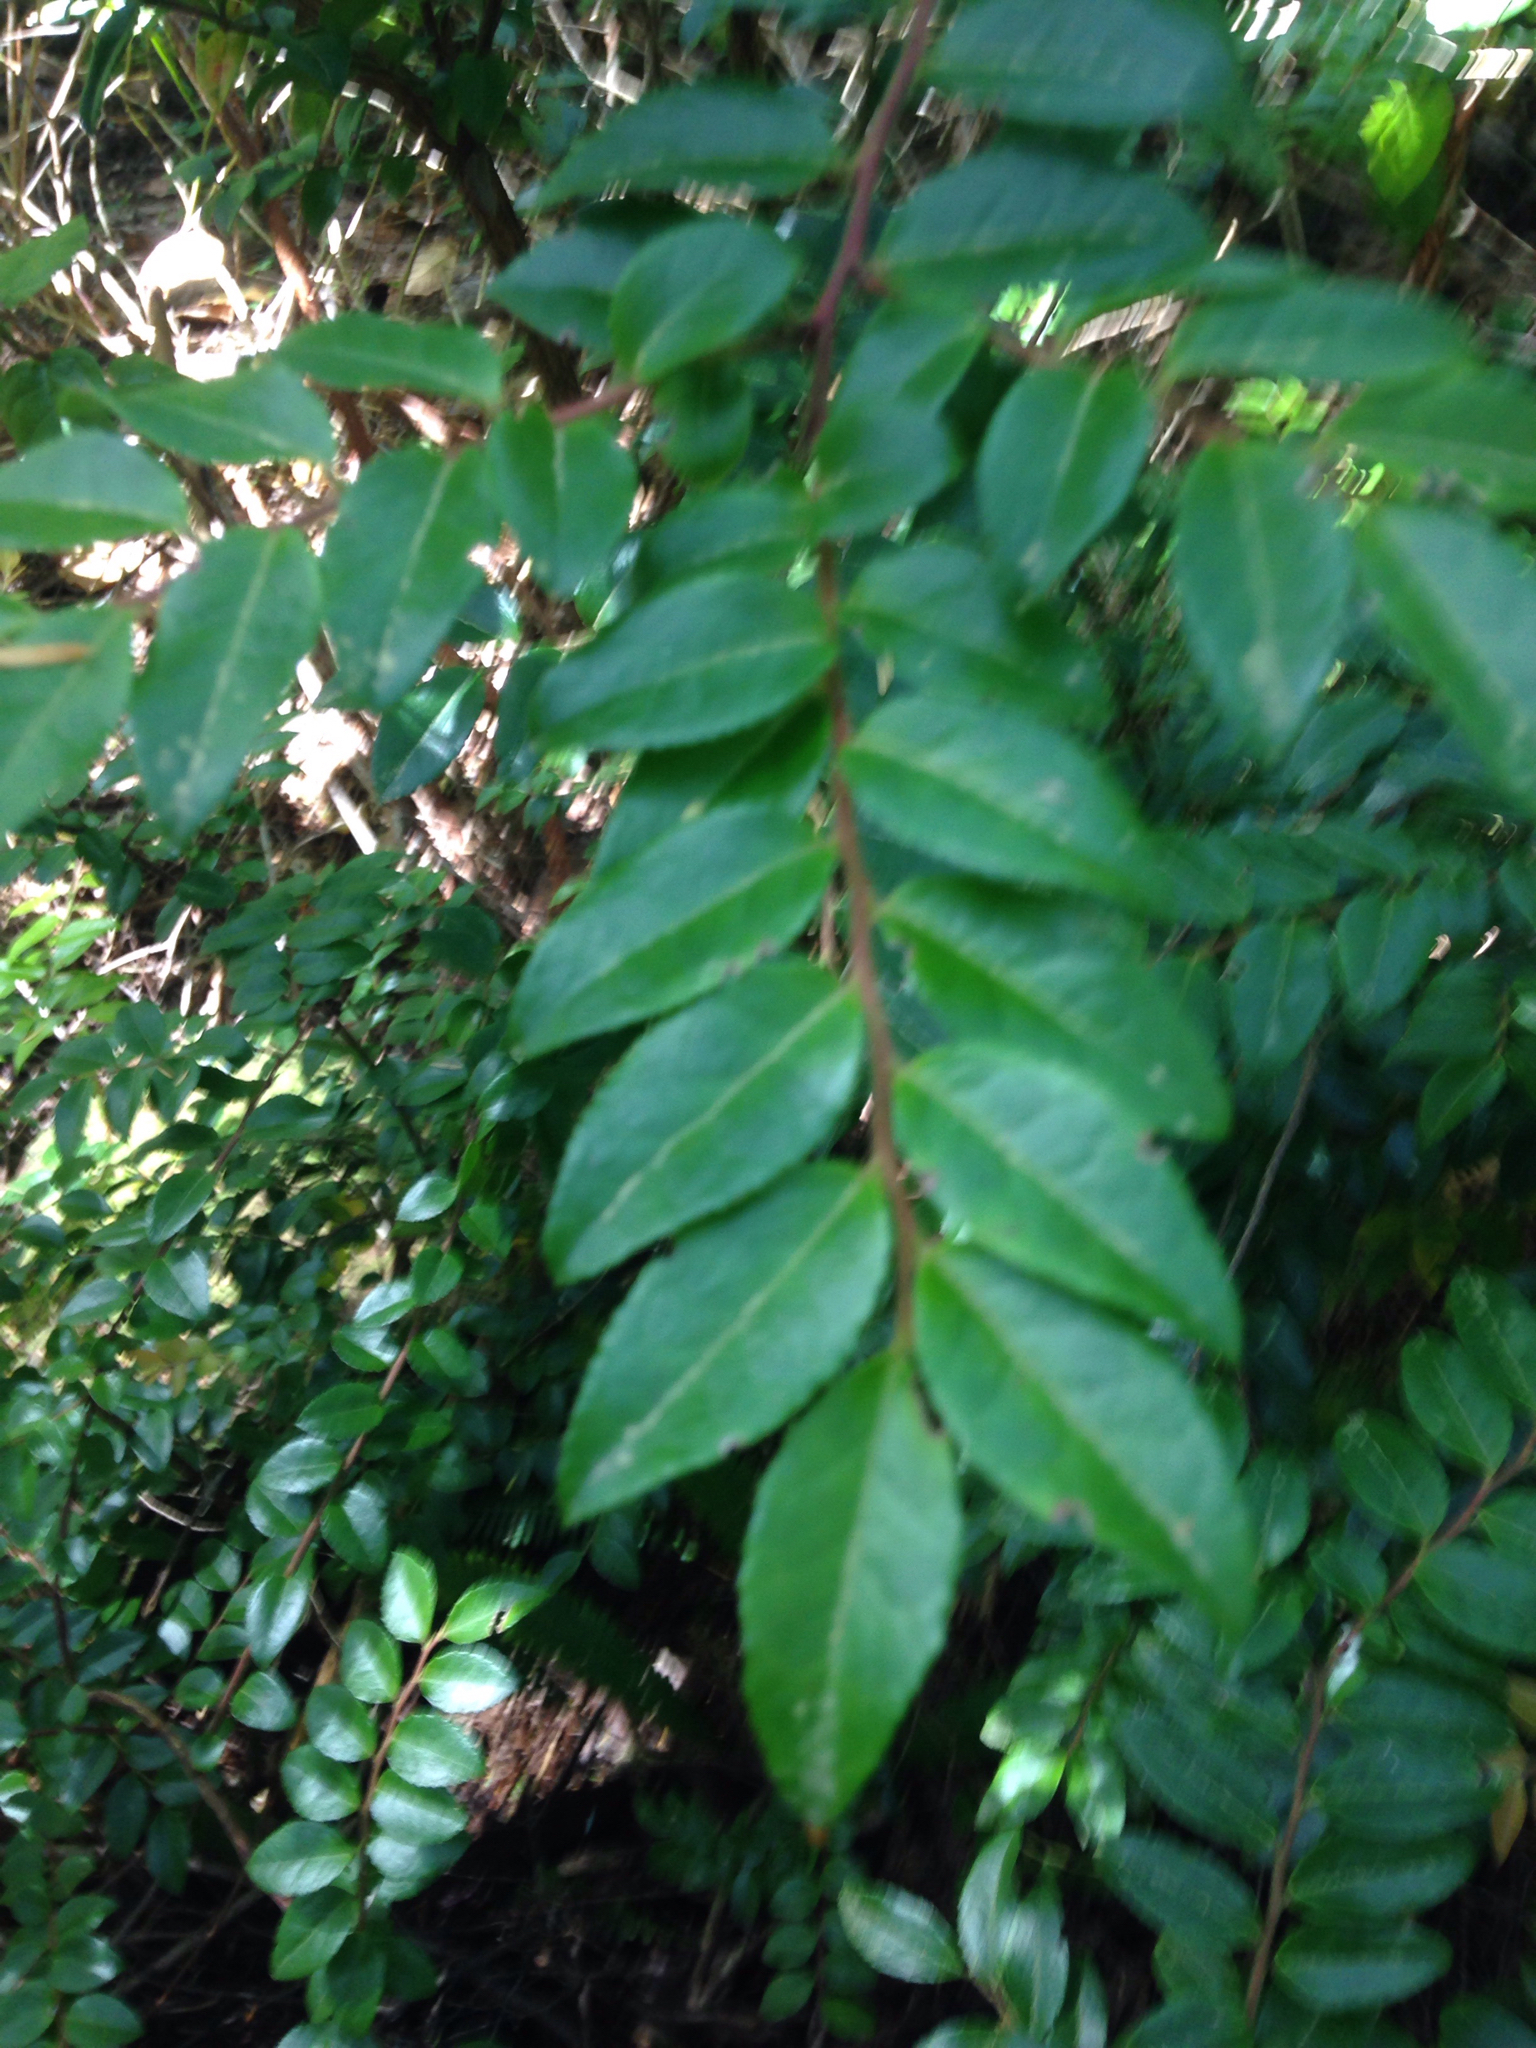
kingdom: Plantae
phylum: Tracheophyta
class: Magnoliopsida
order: Ericales
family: Ericaceae
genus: Vaccinium
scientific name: Vaccinium ovatum
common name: California-huckleberry
